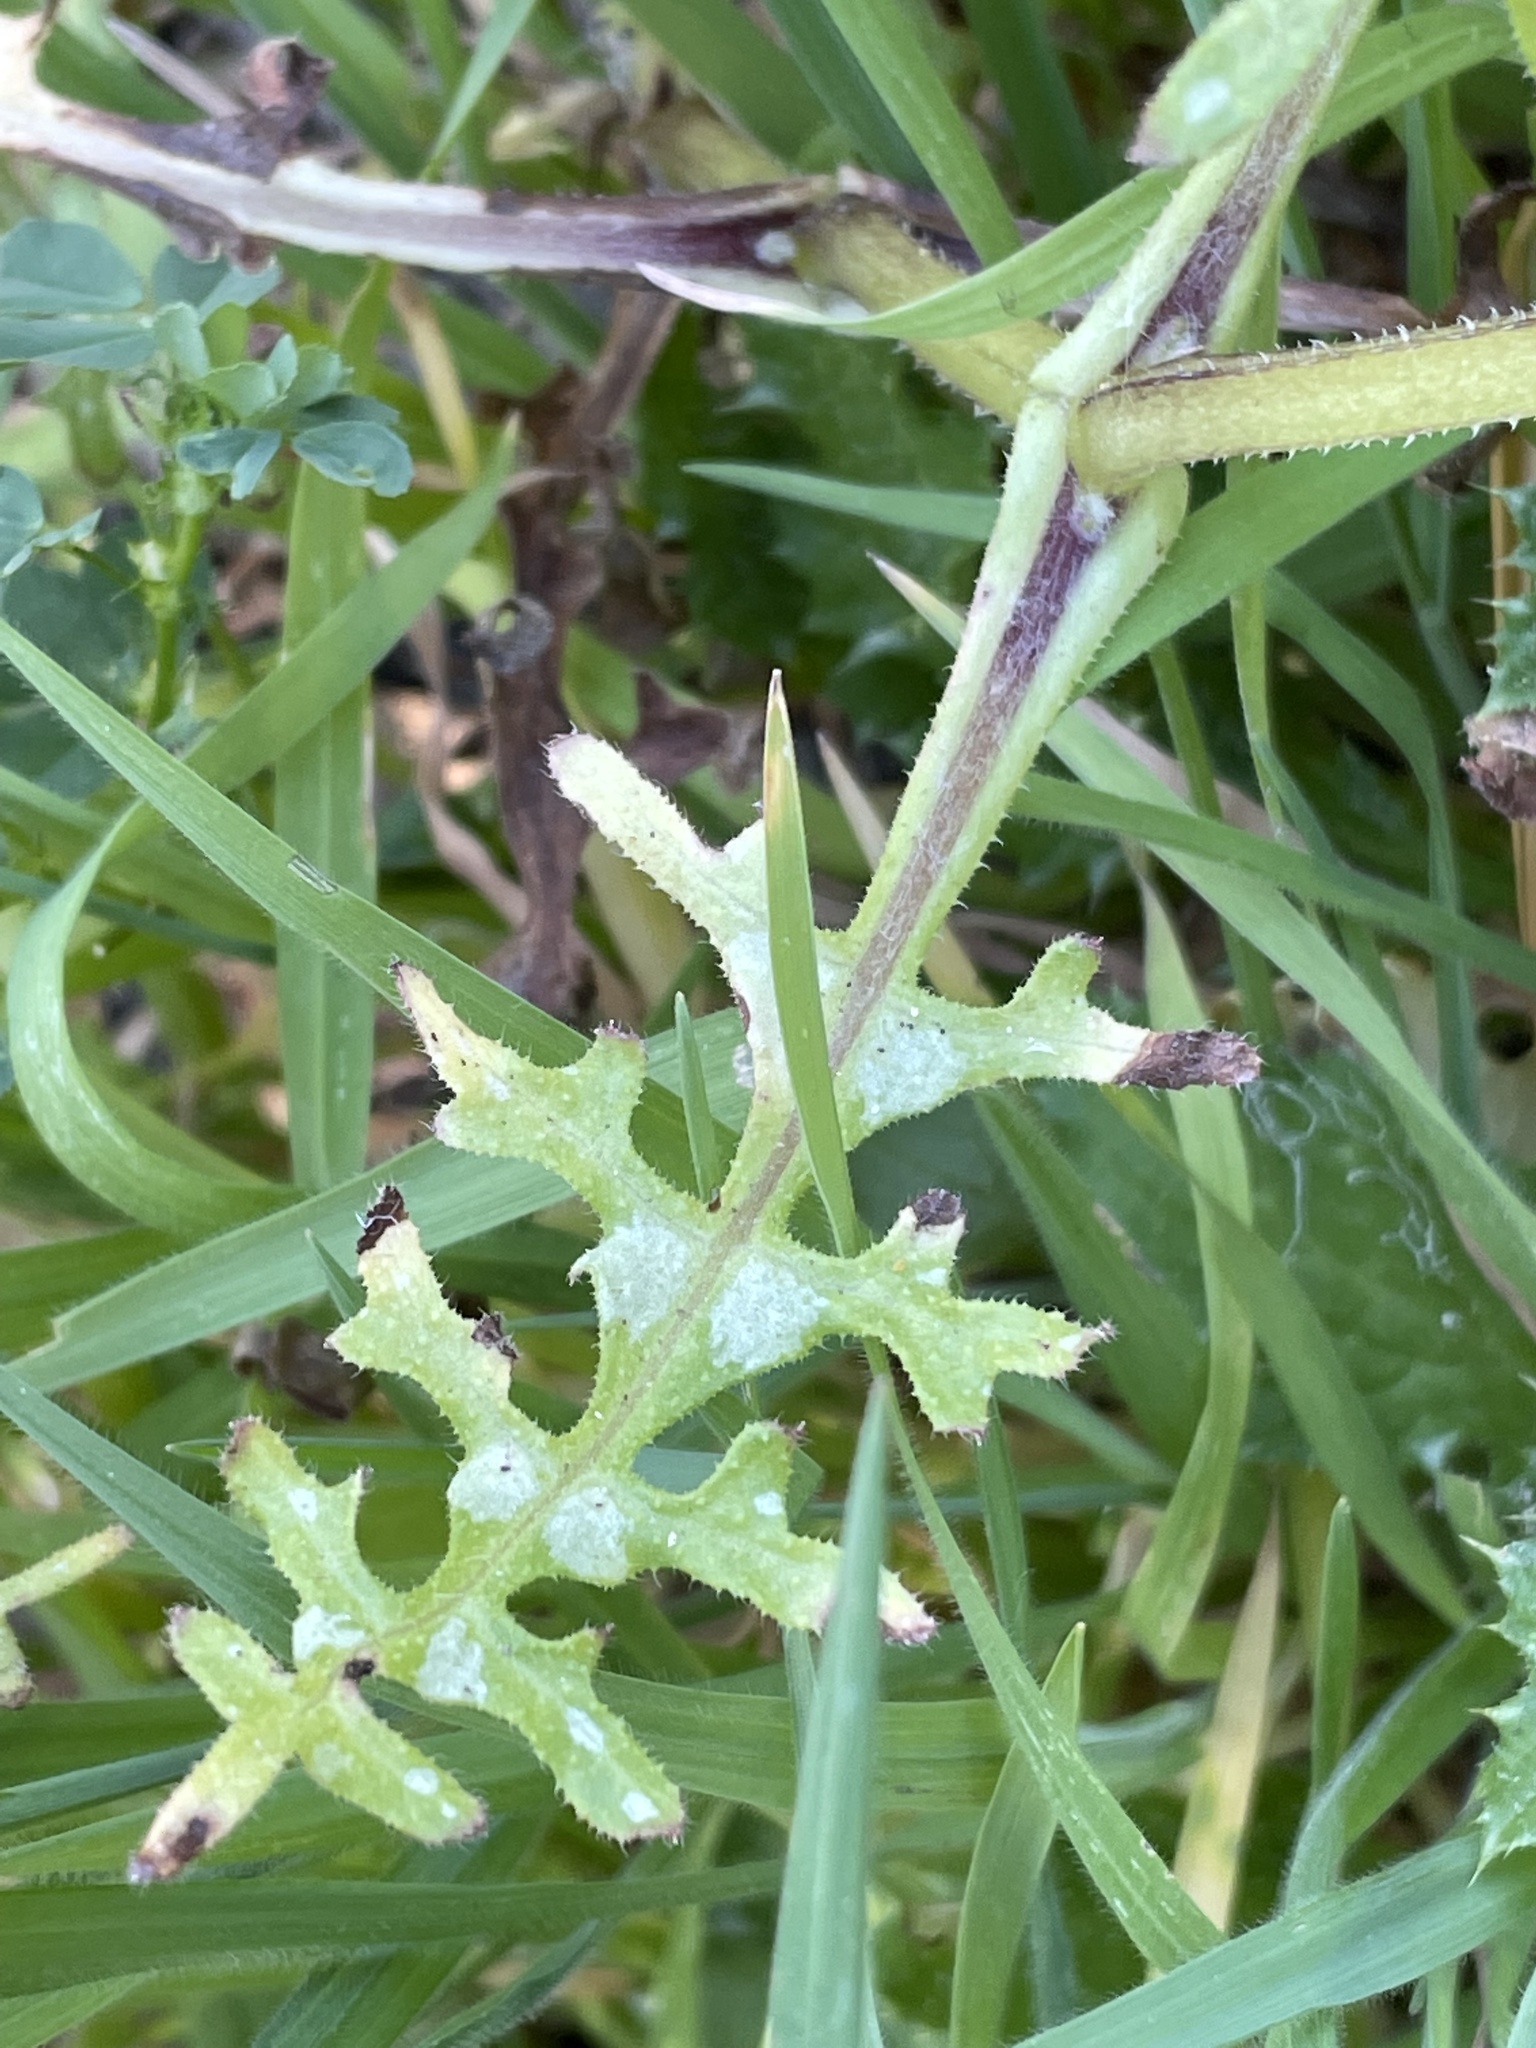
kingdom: Plantae
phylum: Tracheophyta
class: Magnoliopsida
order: Boraginales
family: Hydrophyllaceae
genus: Pholistoma
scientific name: Pholistoma auritum
